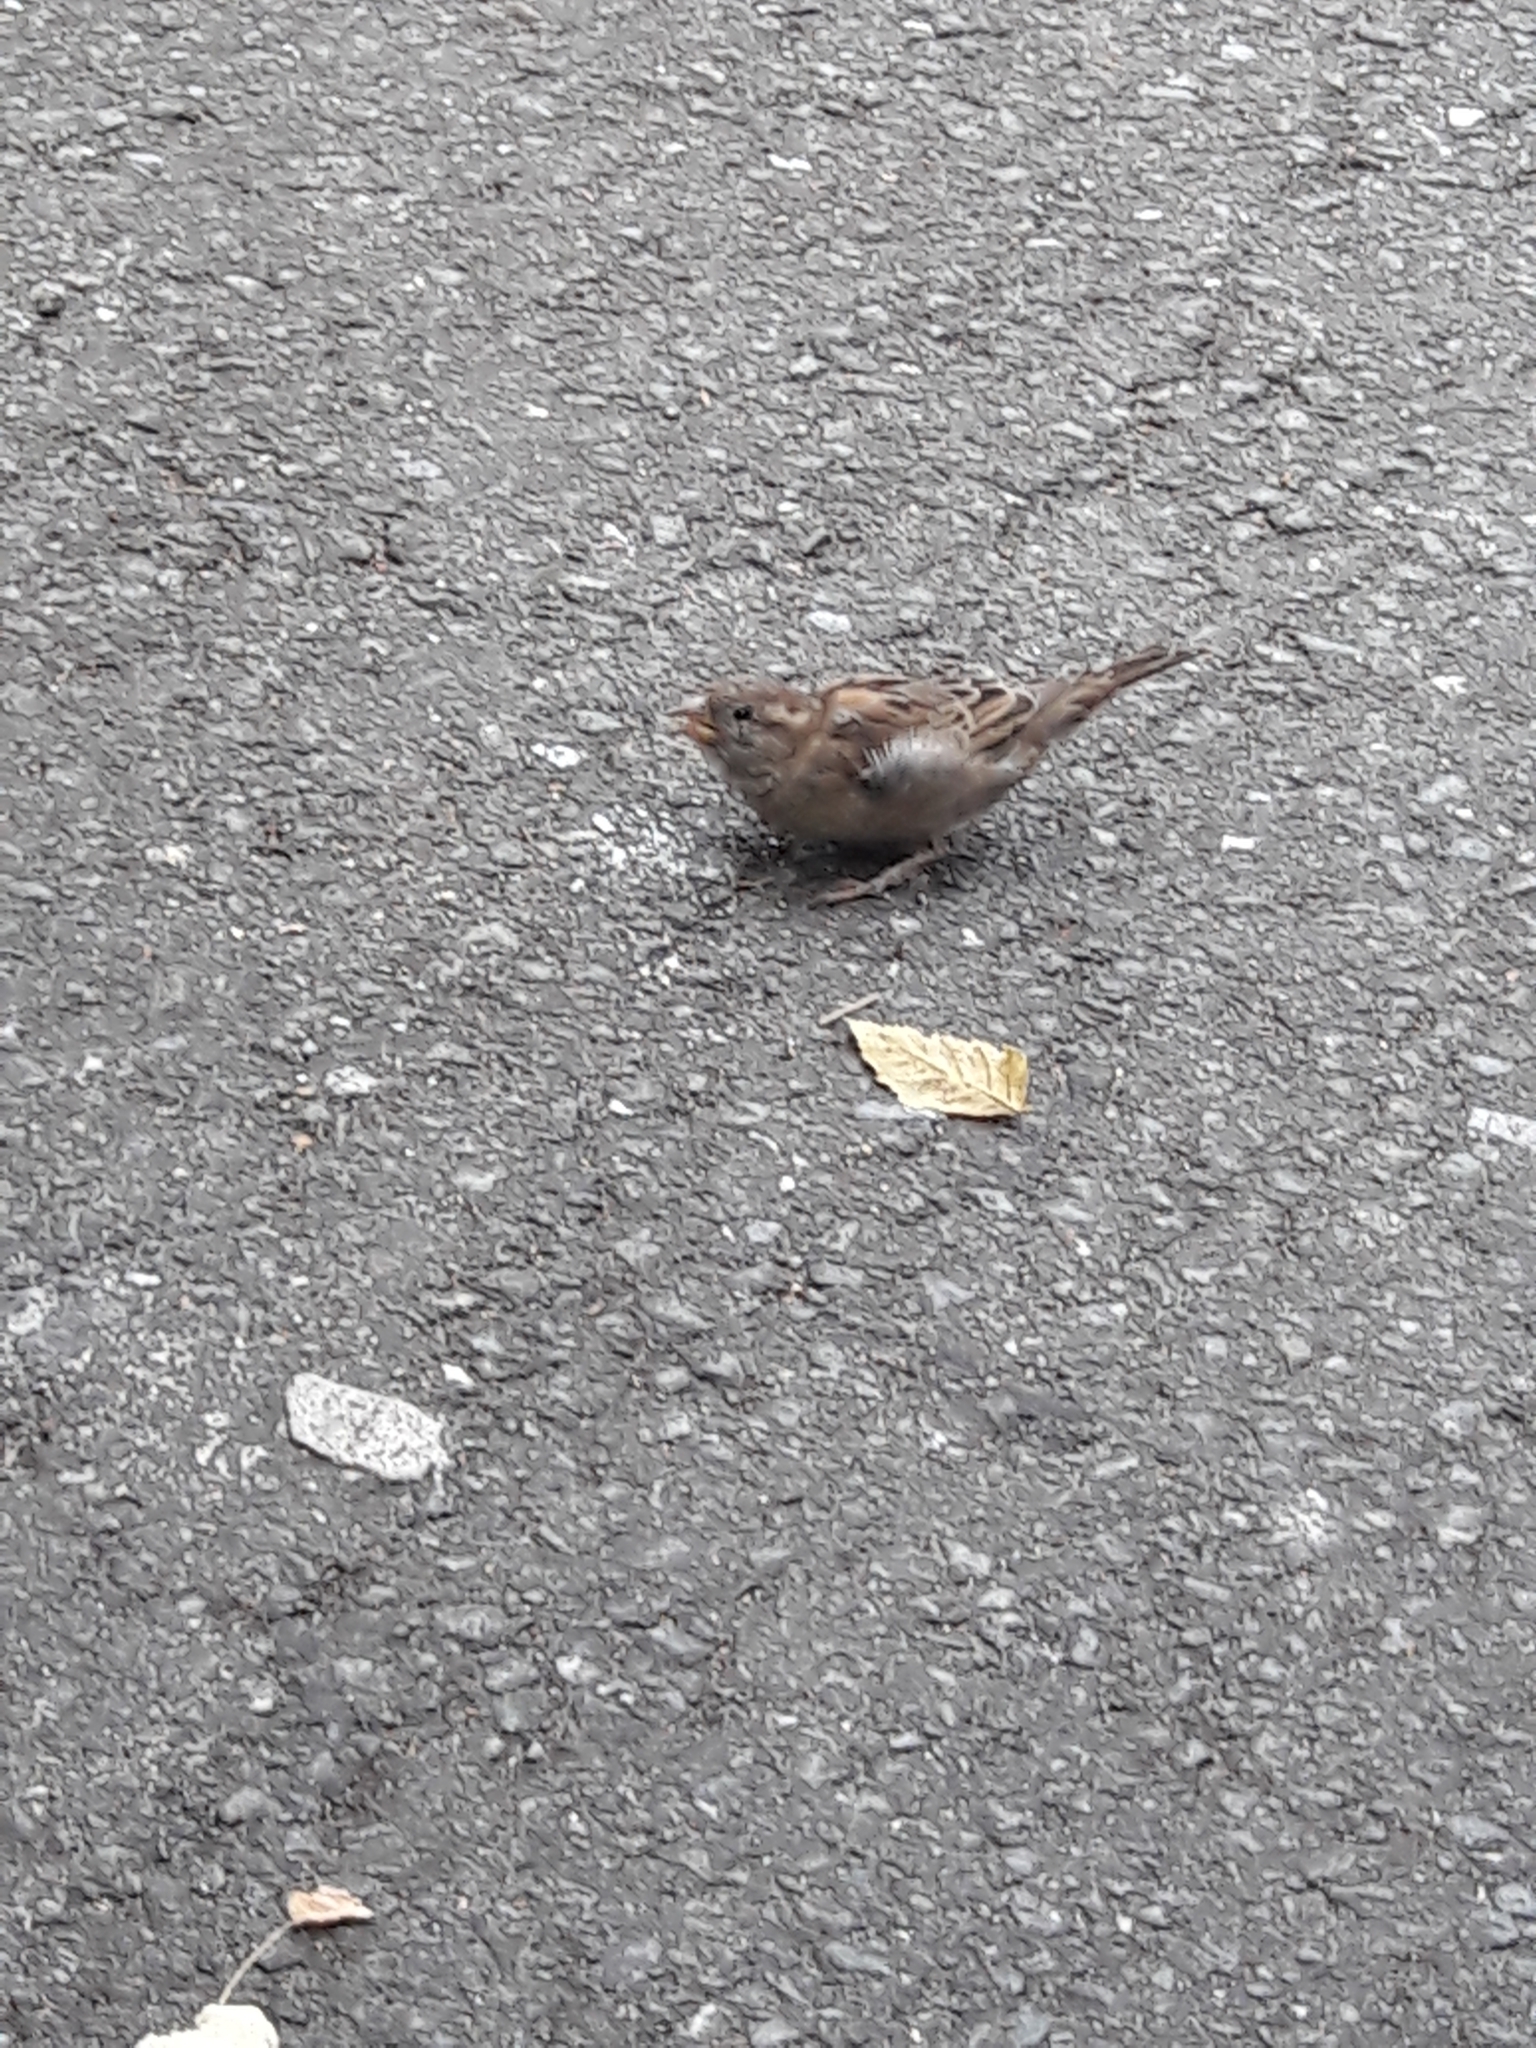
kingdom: Animalia
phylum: Chordata
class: Aves
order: Passeriformes
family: Passeridae
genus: Passer
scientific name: Passer domesticus
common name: House sparrow
